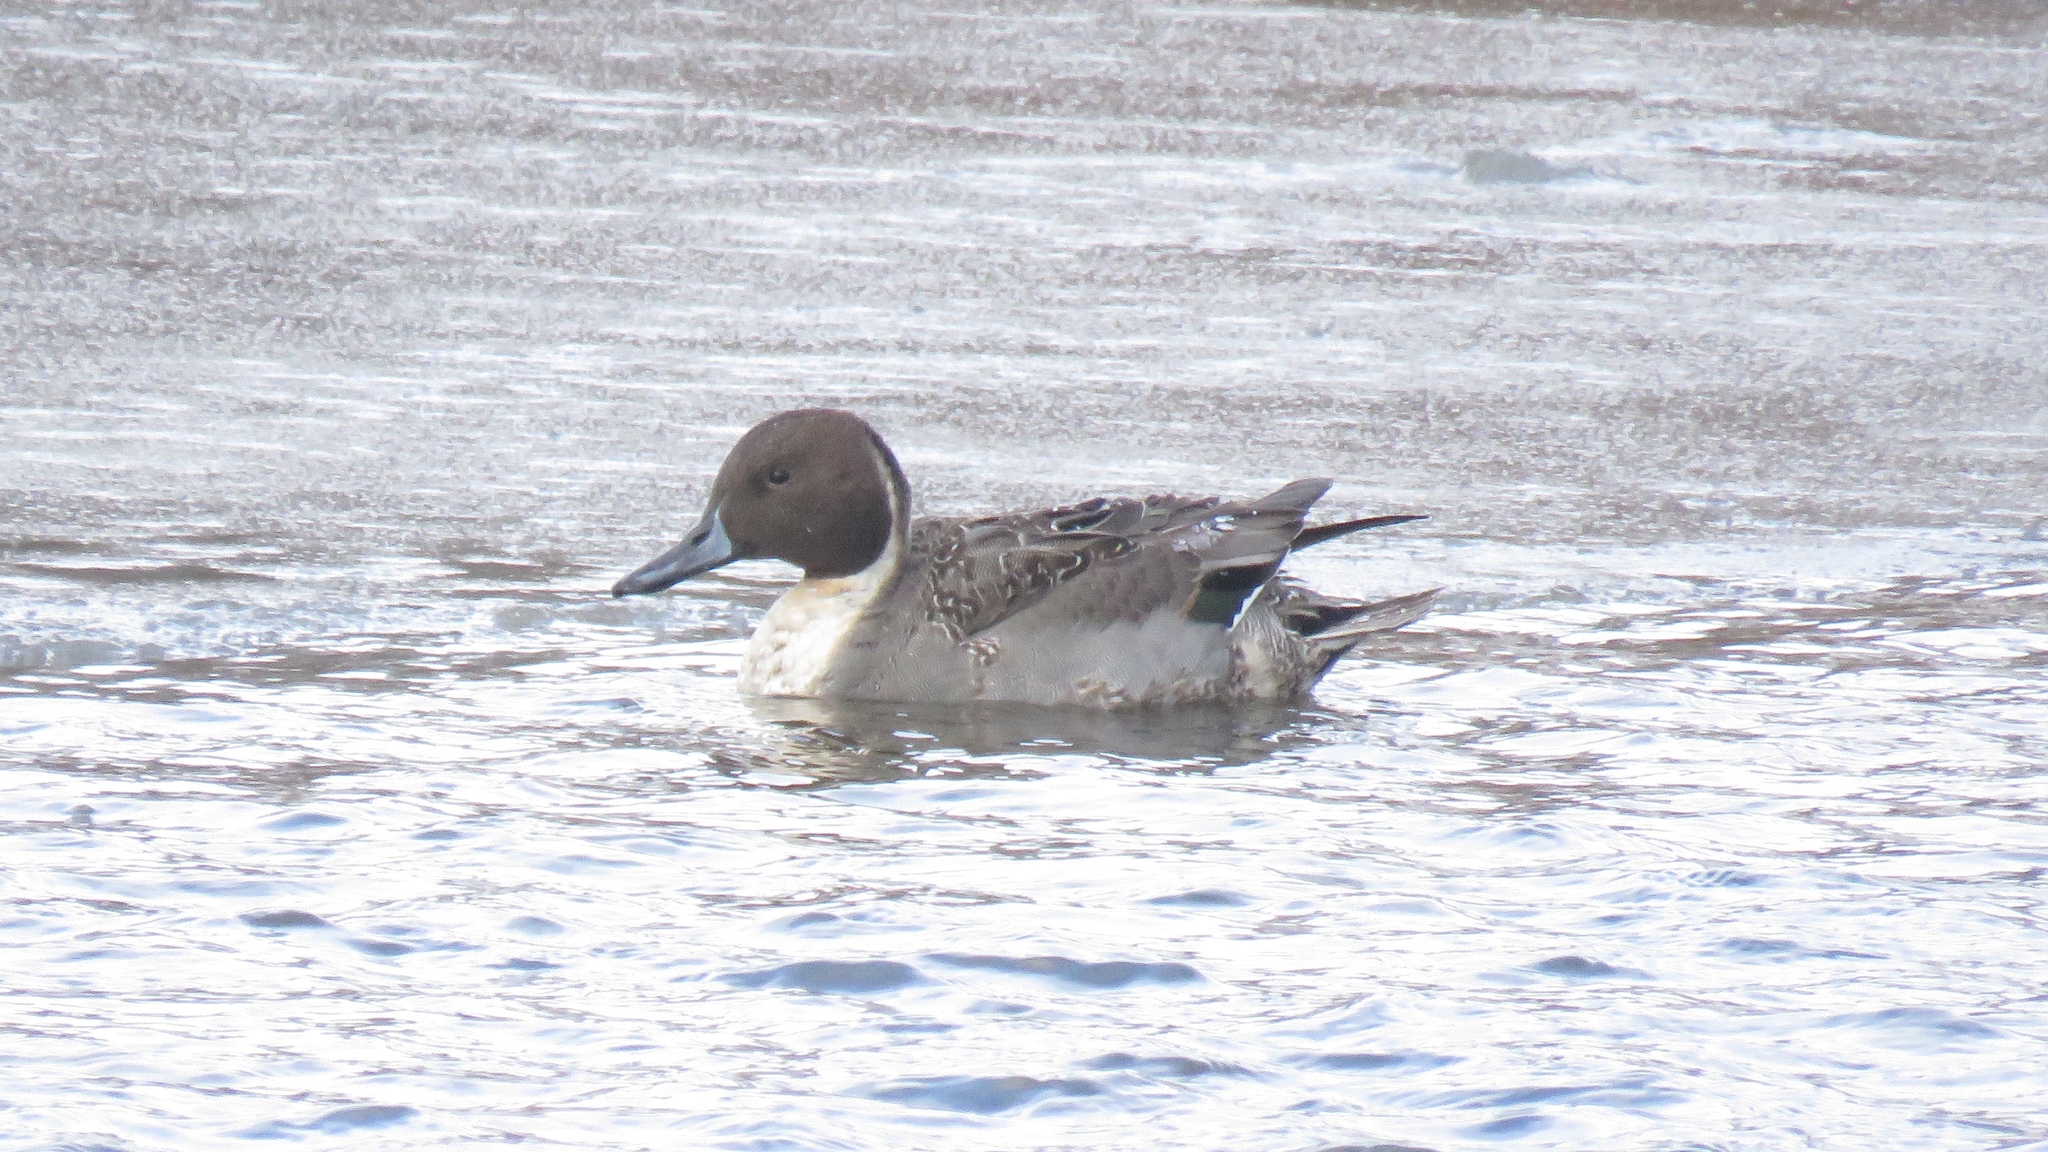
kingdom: Animalia
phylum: Chordata
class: Aves
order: Anseriformes
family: Anatidae
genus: Anas
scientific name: Anas acuta
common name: Northern pintail
